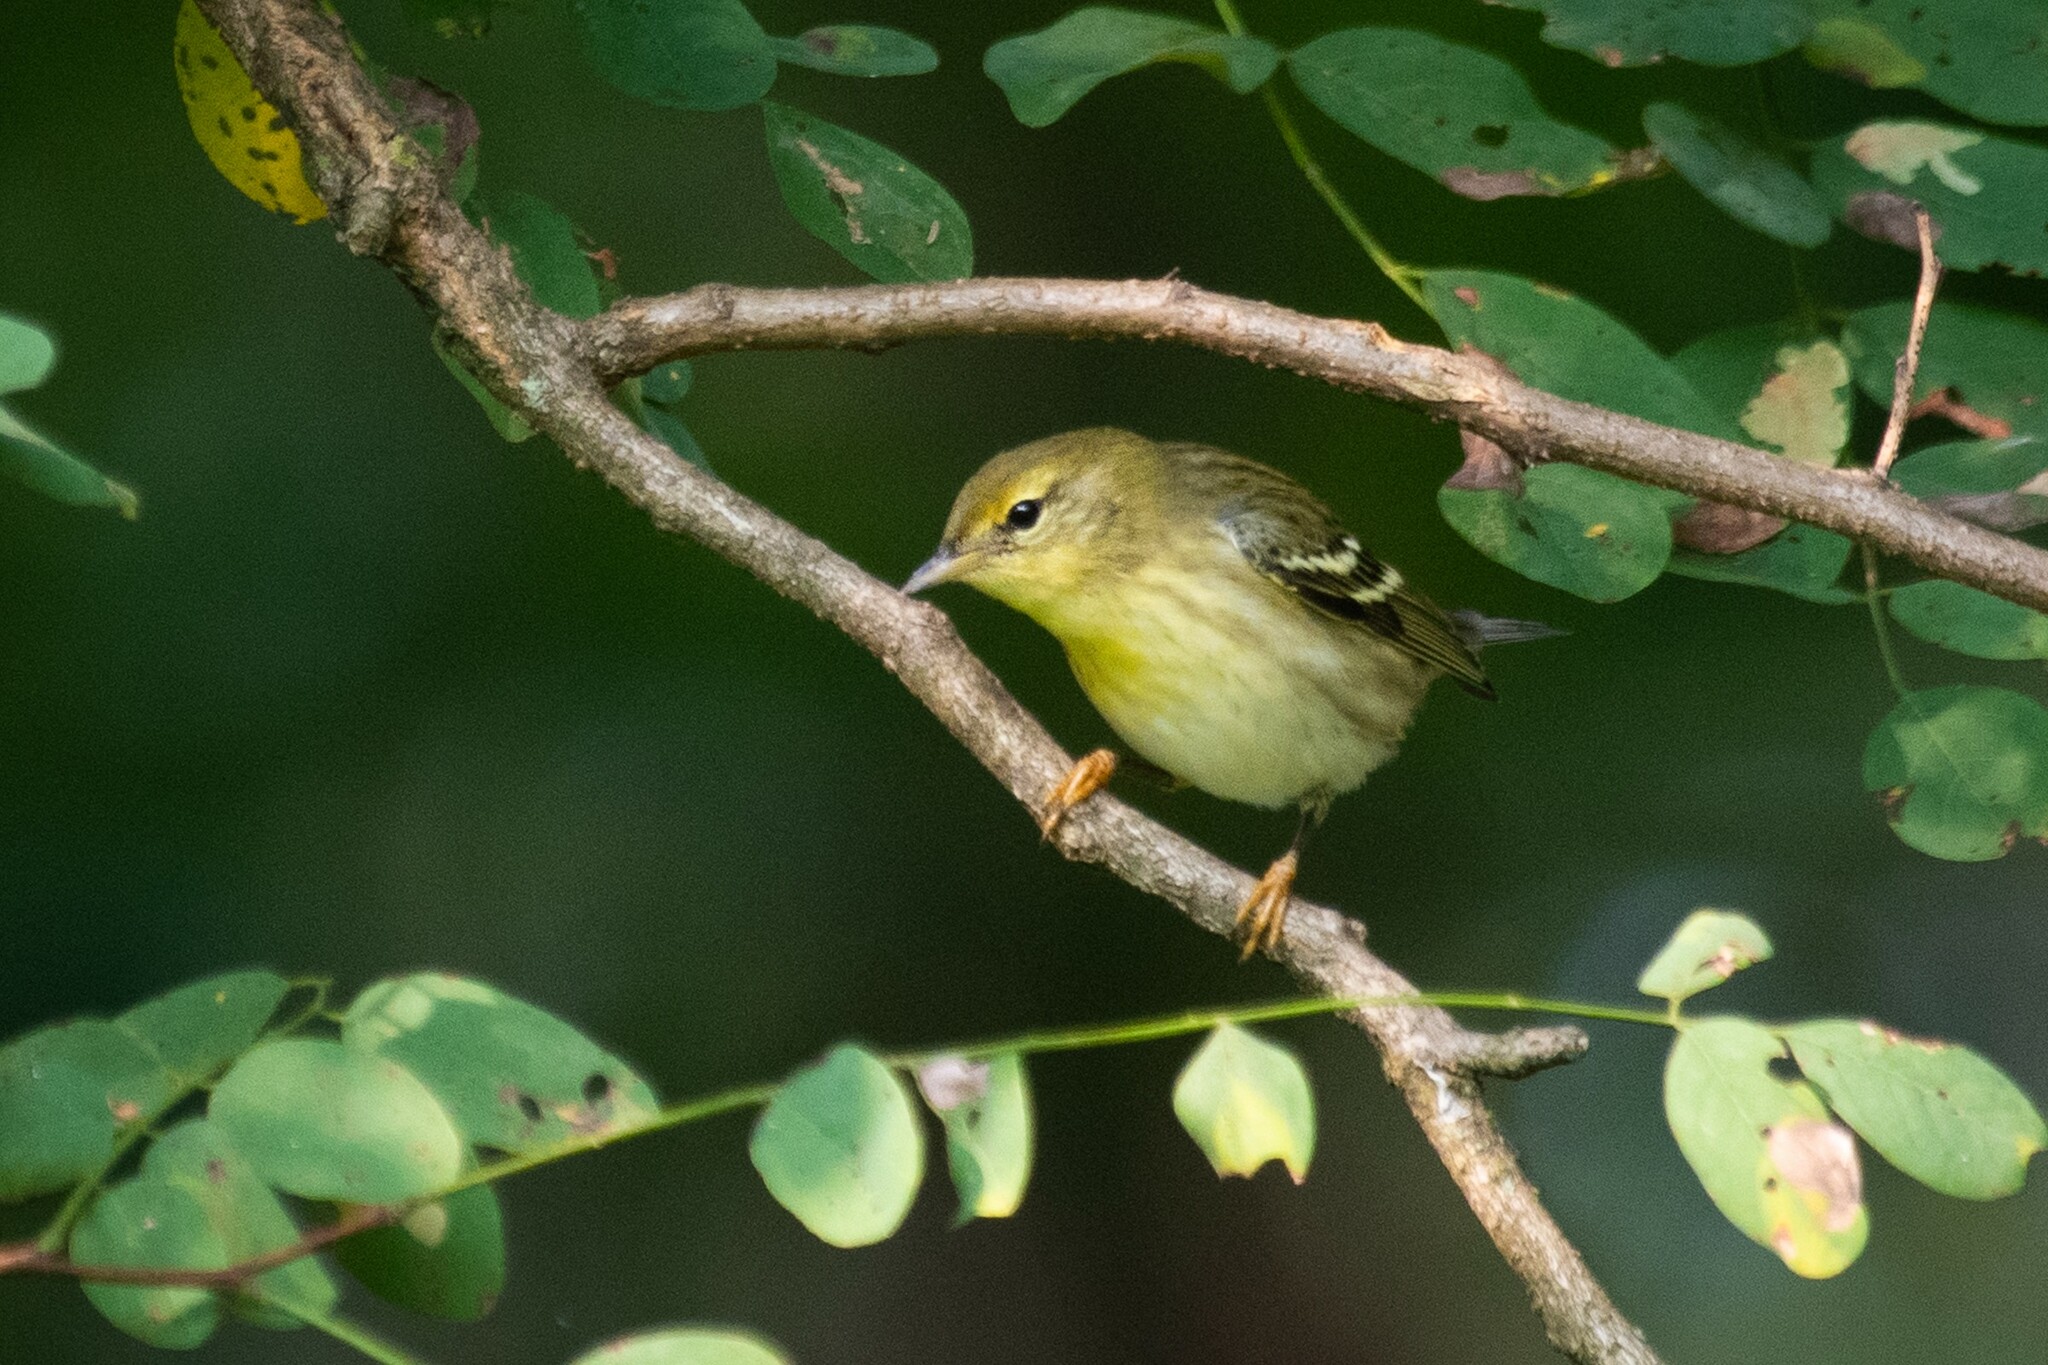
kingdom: Animalia
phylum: Chordata
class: Aves
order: Passeriformes
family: Parulidae
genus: Setophaga
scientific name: Setophaga striata
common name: Blackpoll warbler
